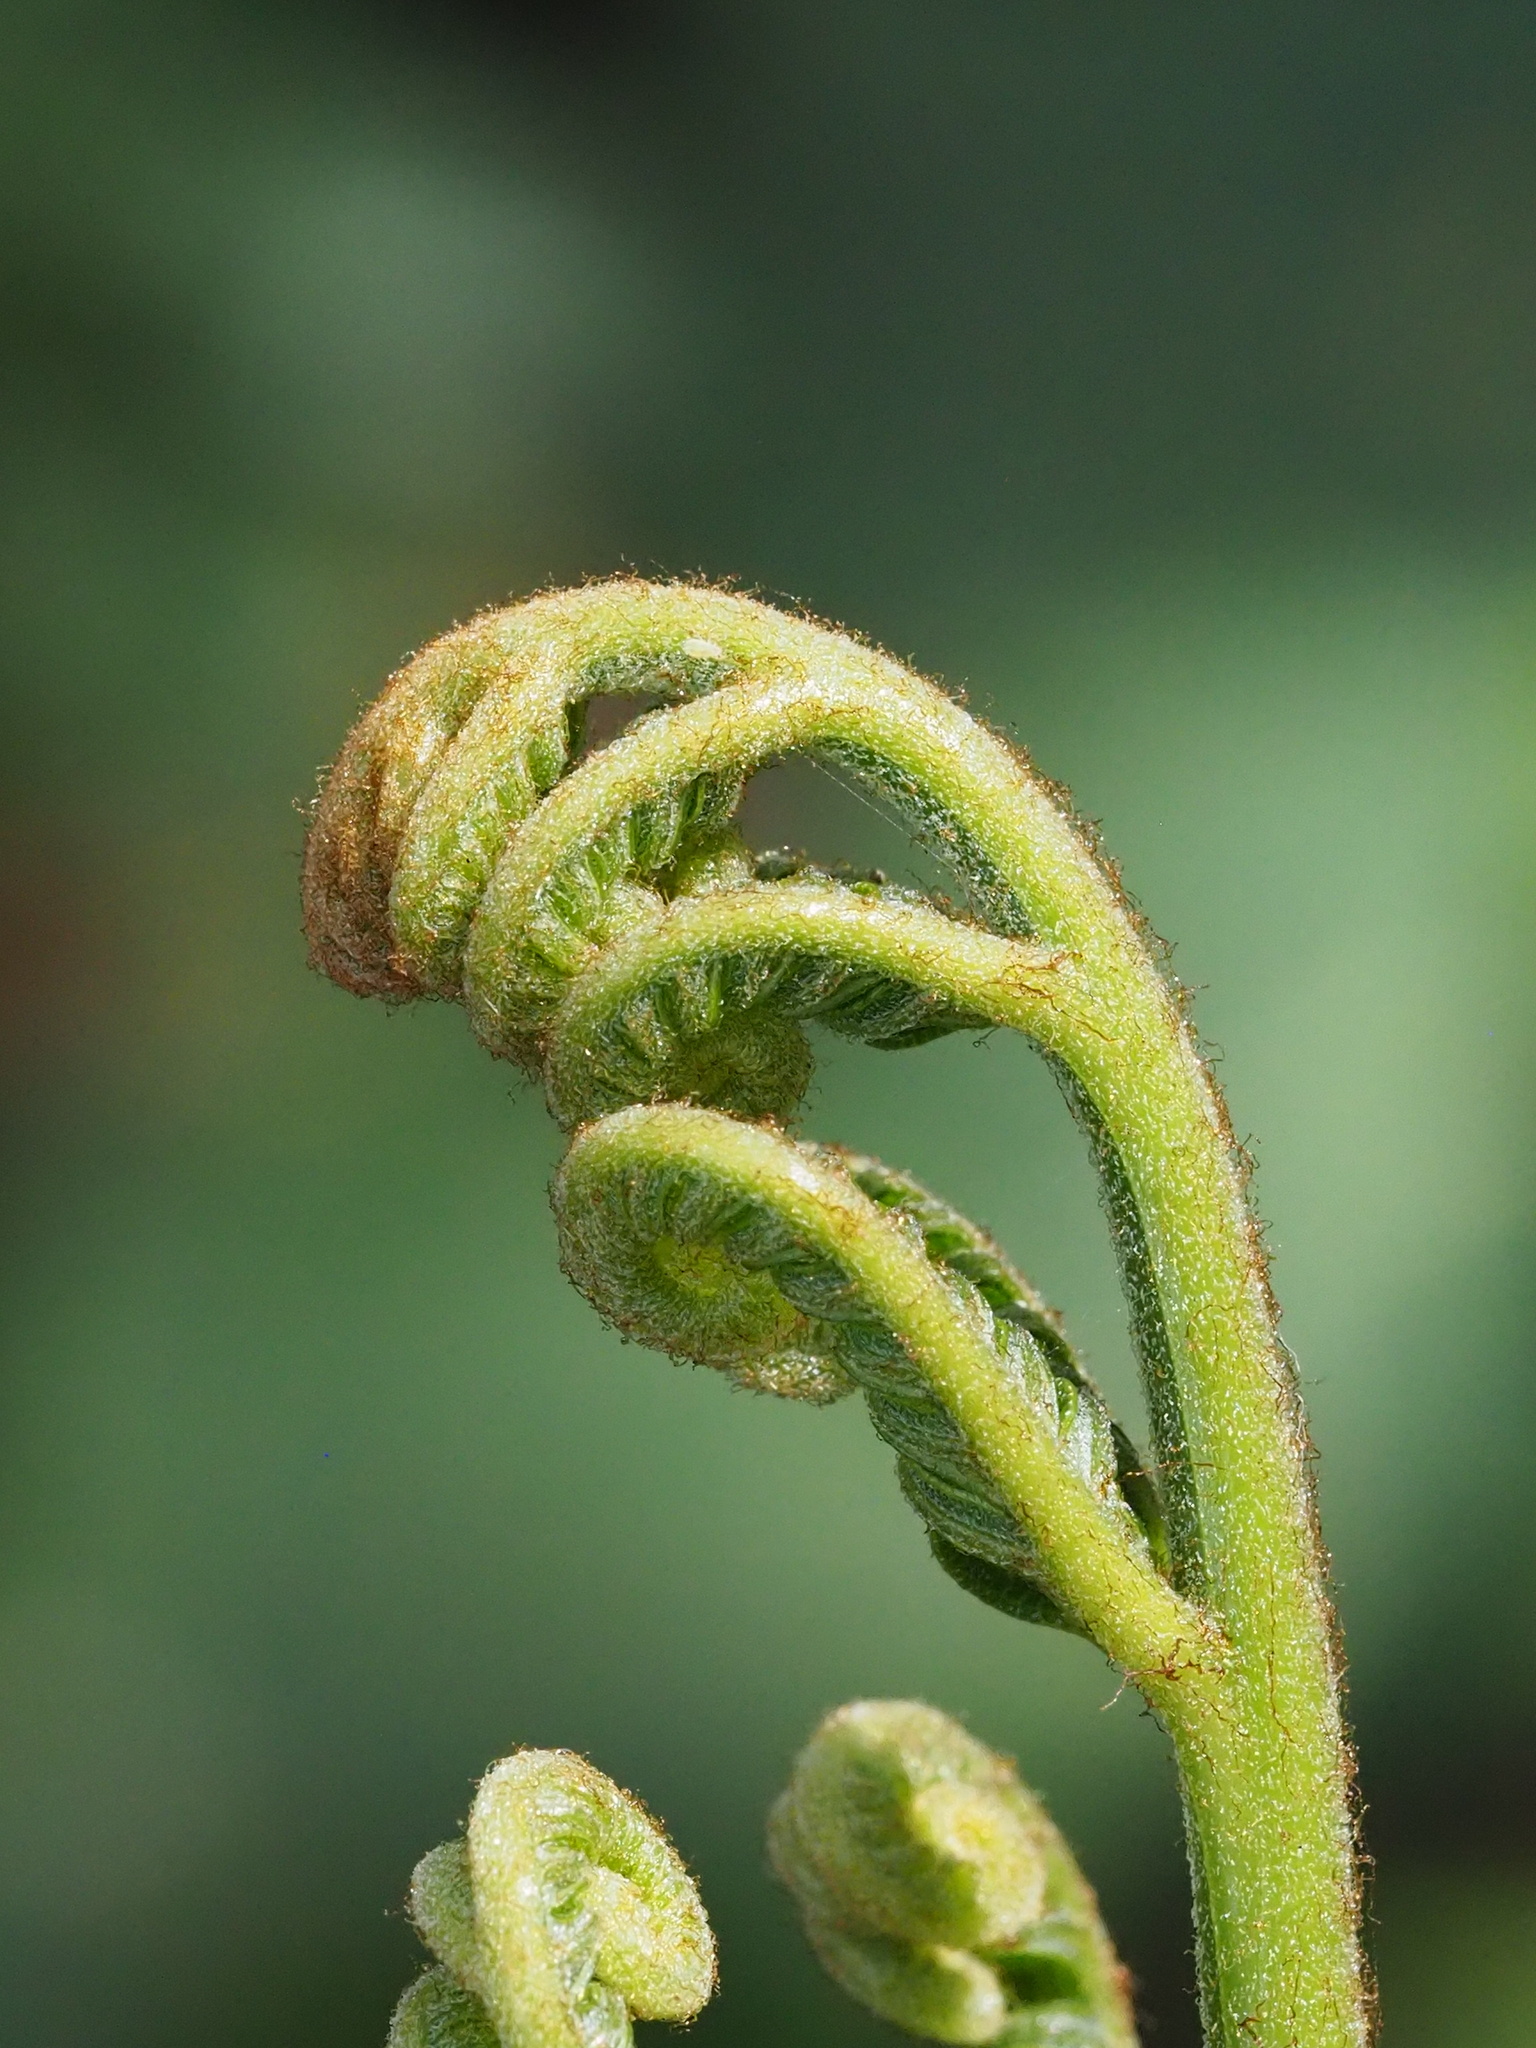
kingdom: Plantae
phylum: Tracheophyta
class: Polypodiopsida
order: Polypodiales
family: Pteridaceae
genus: Pteris
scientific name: Pteris fauriei
